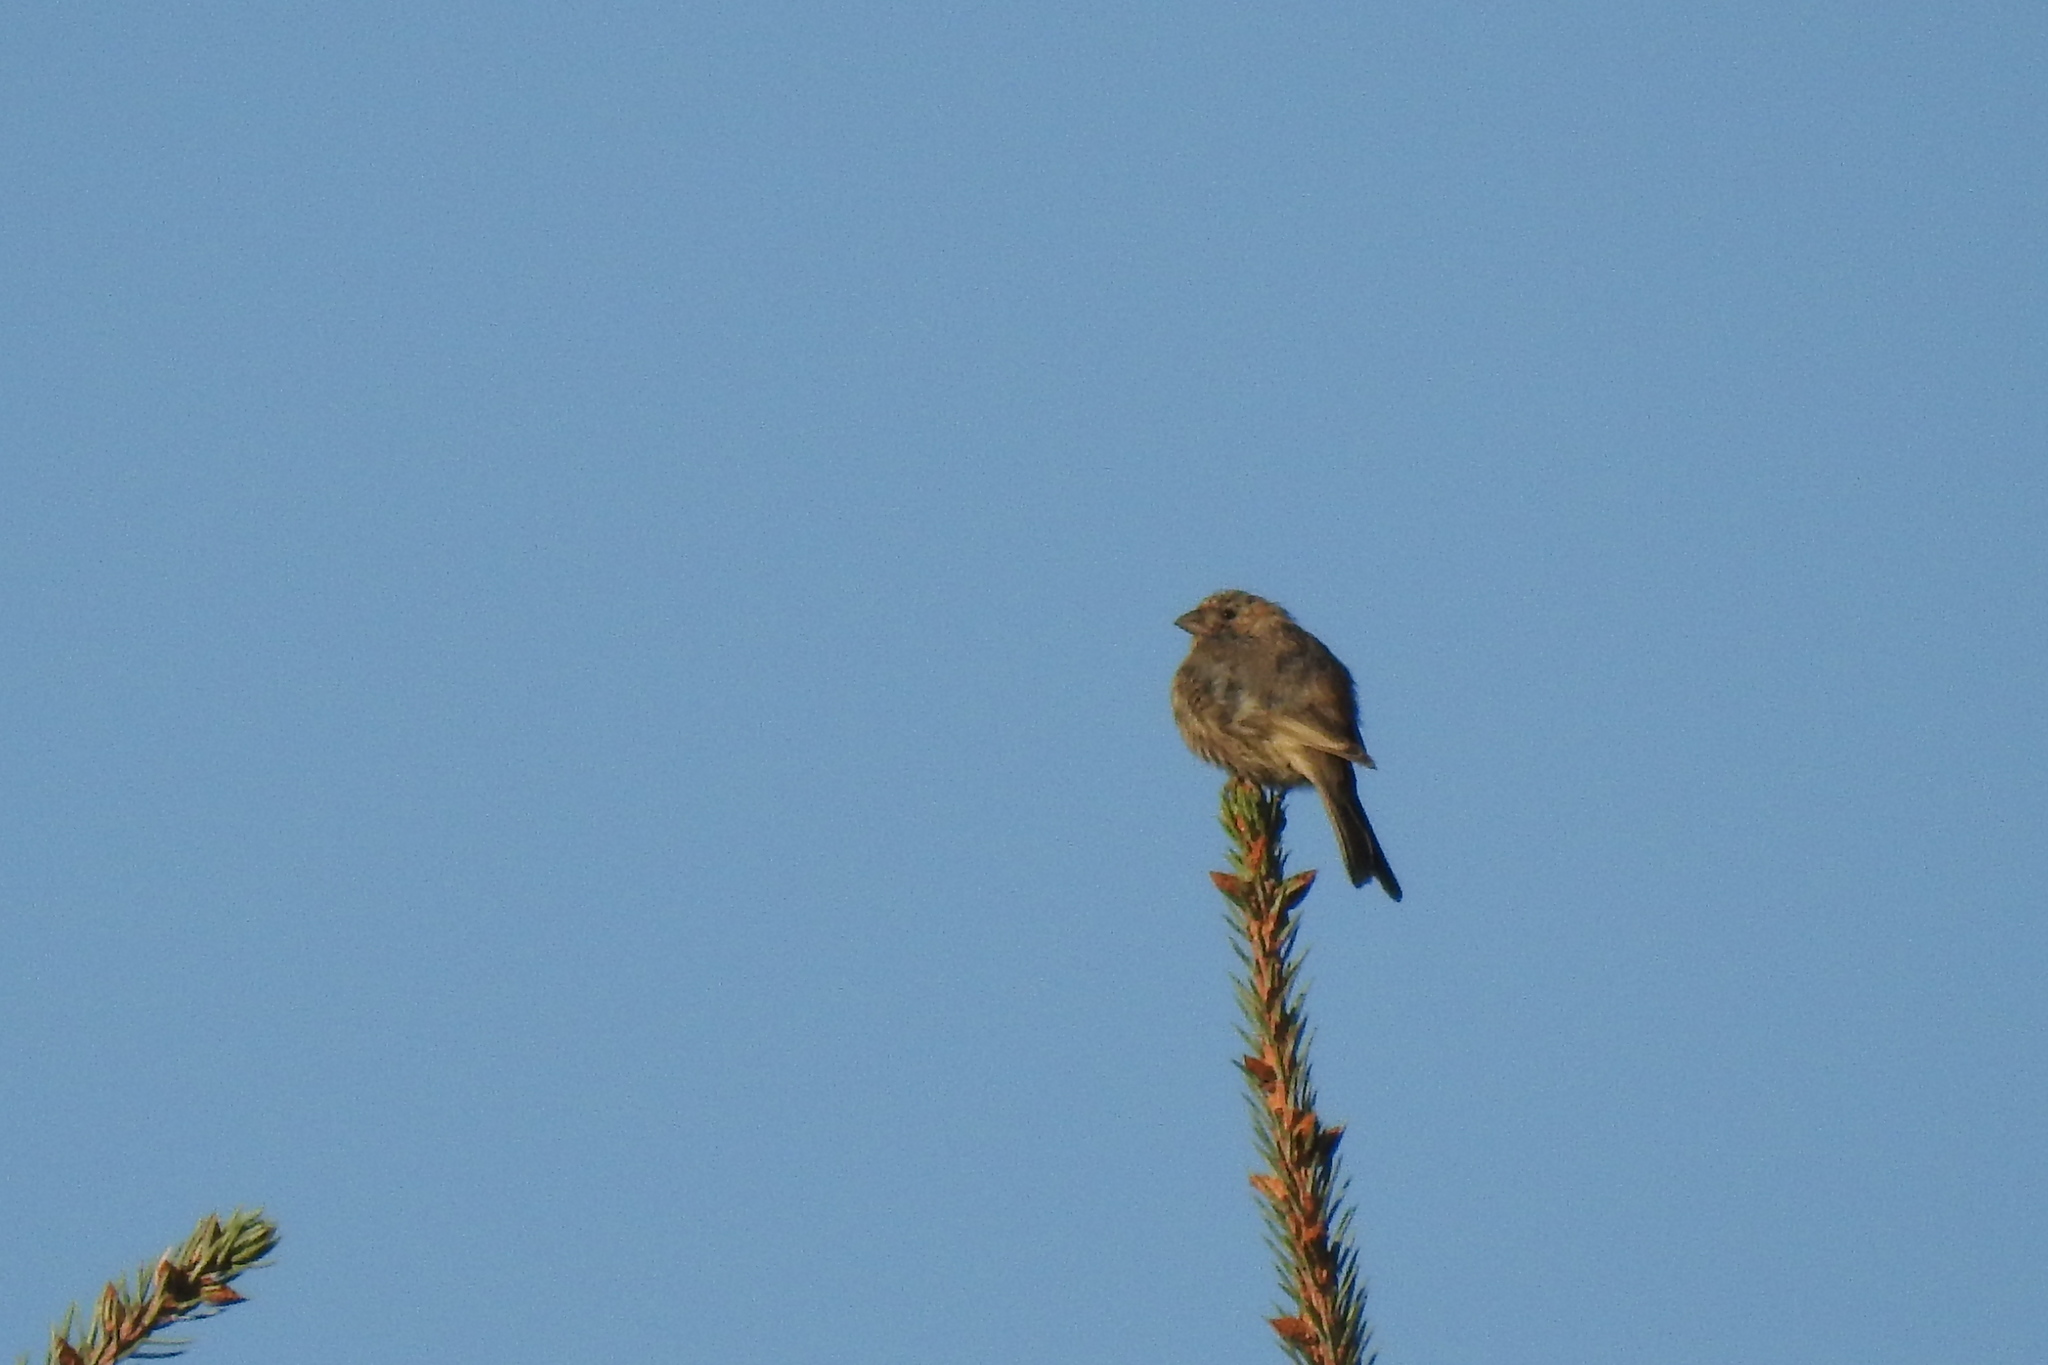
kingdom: Animalia
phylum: Chordata
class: Aves
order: Passeriformes
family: Fringillidae
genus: Haemorhous
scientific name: Haemorhous mexicanus
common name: House finch
